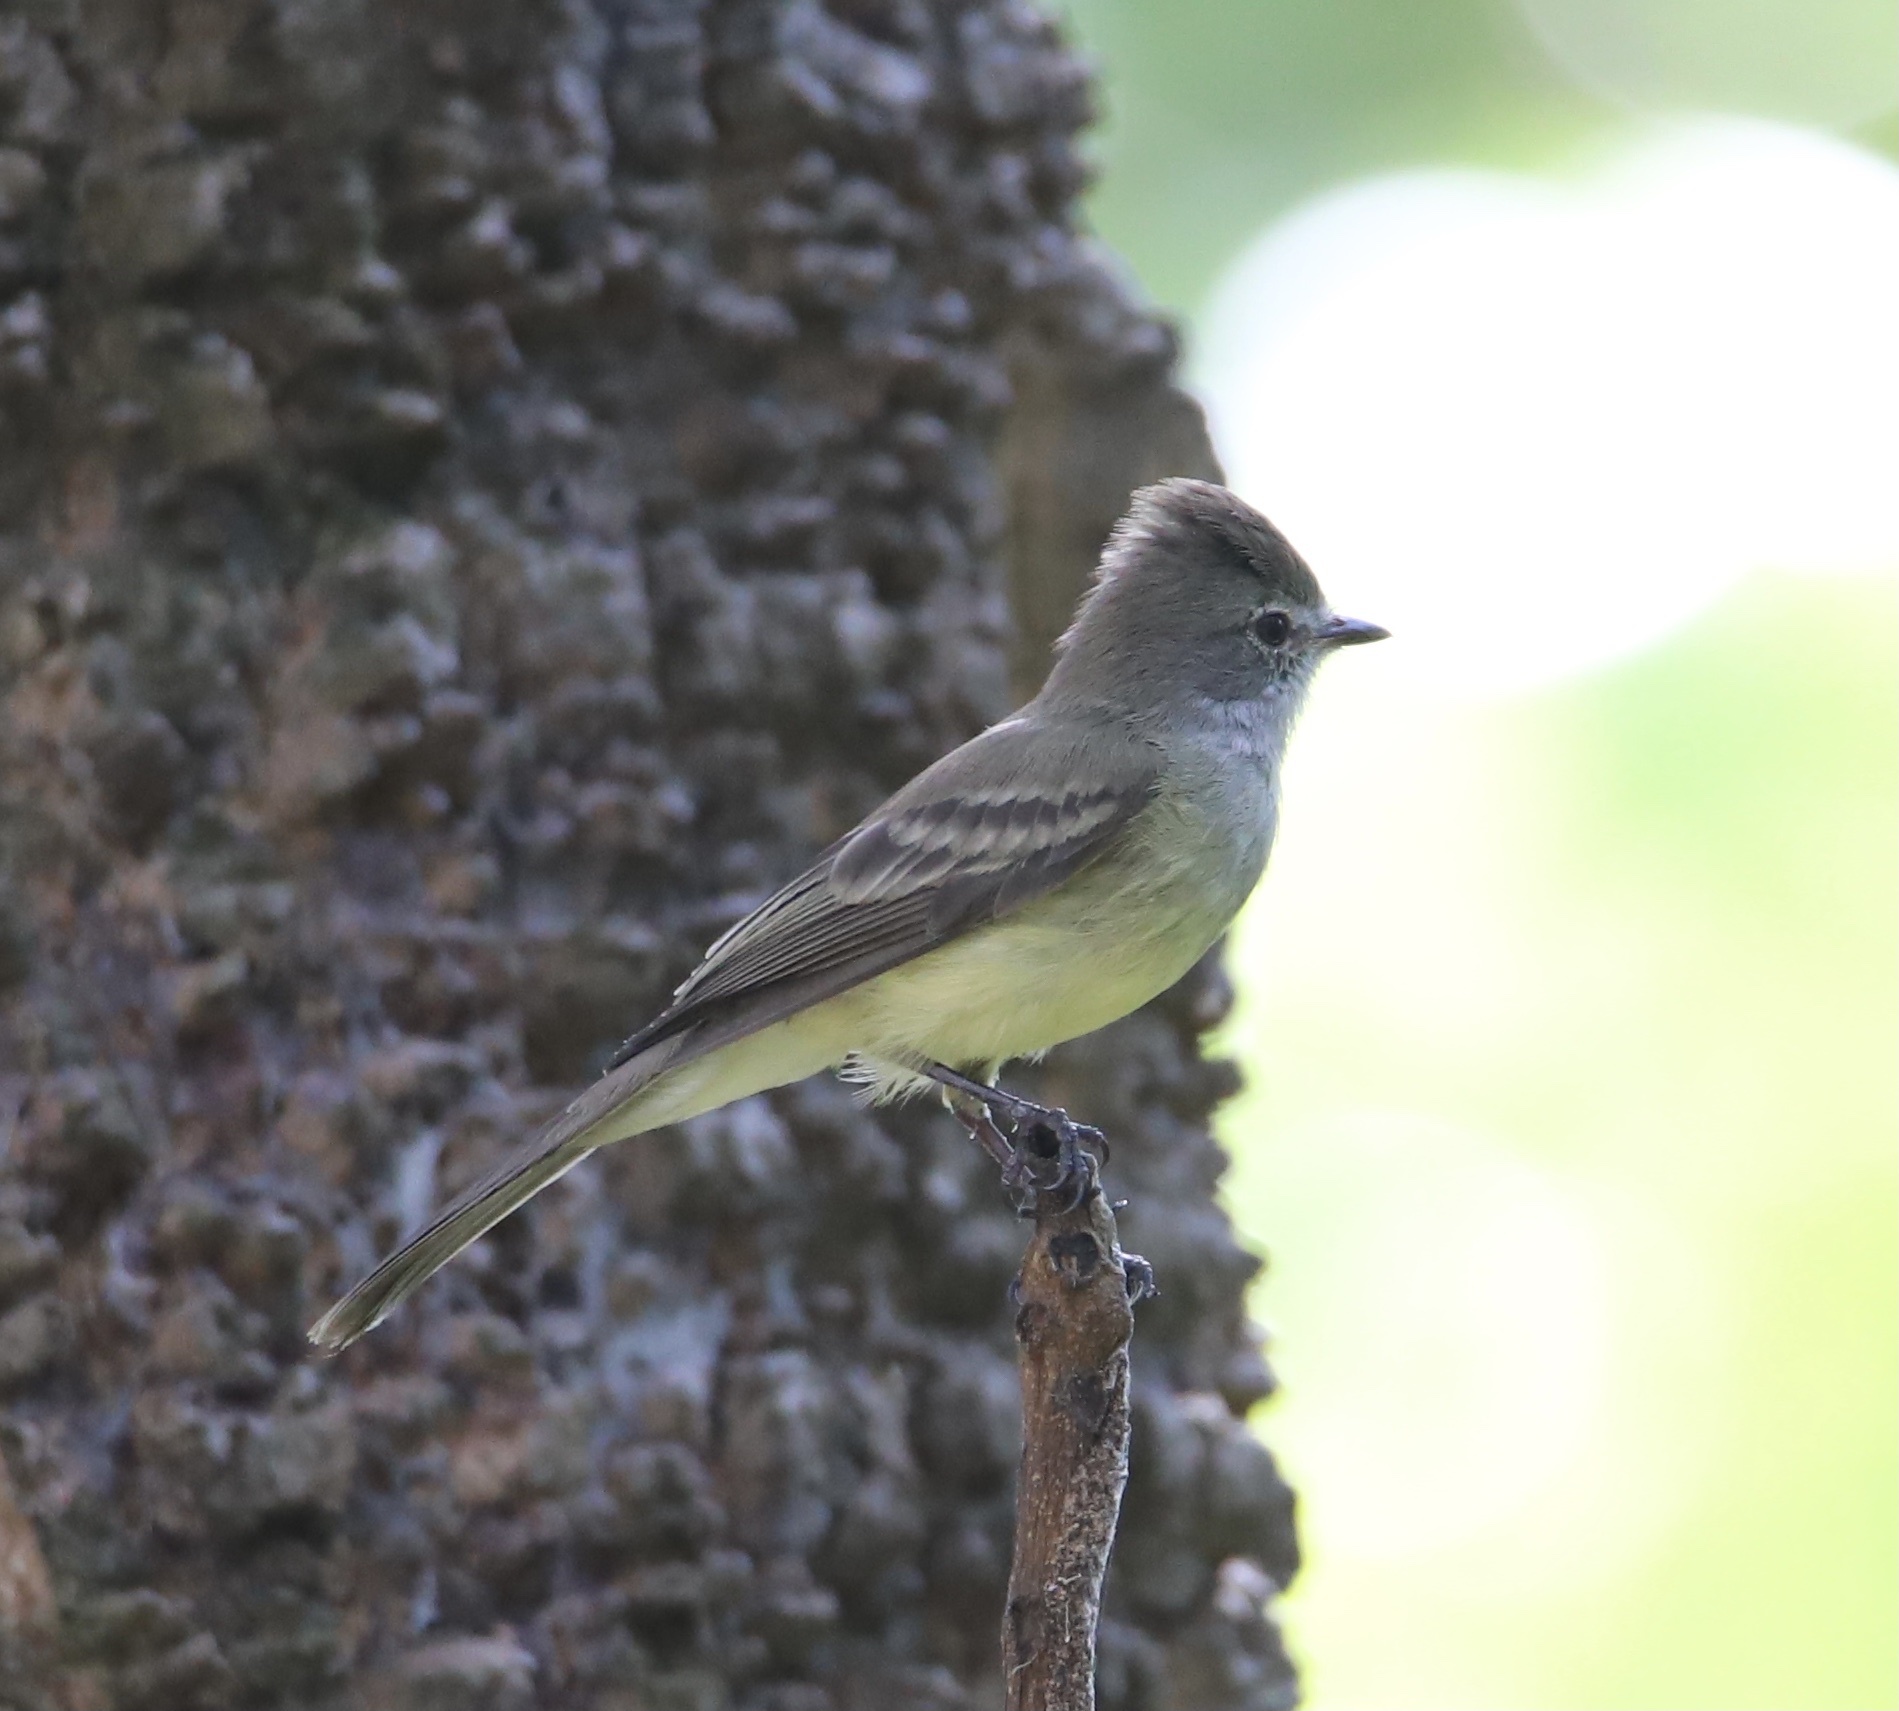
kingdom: Animalia
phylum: Chordata
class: Aves
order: Passeriformes
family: Tyrannidae
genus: Sublegatus
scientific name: Sublegatus arenarum
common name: Northern scrub-flycatcher
